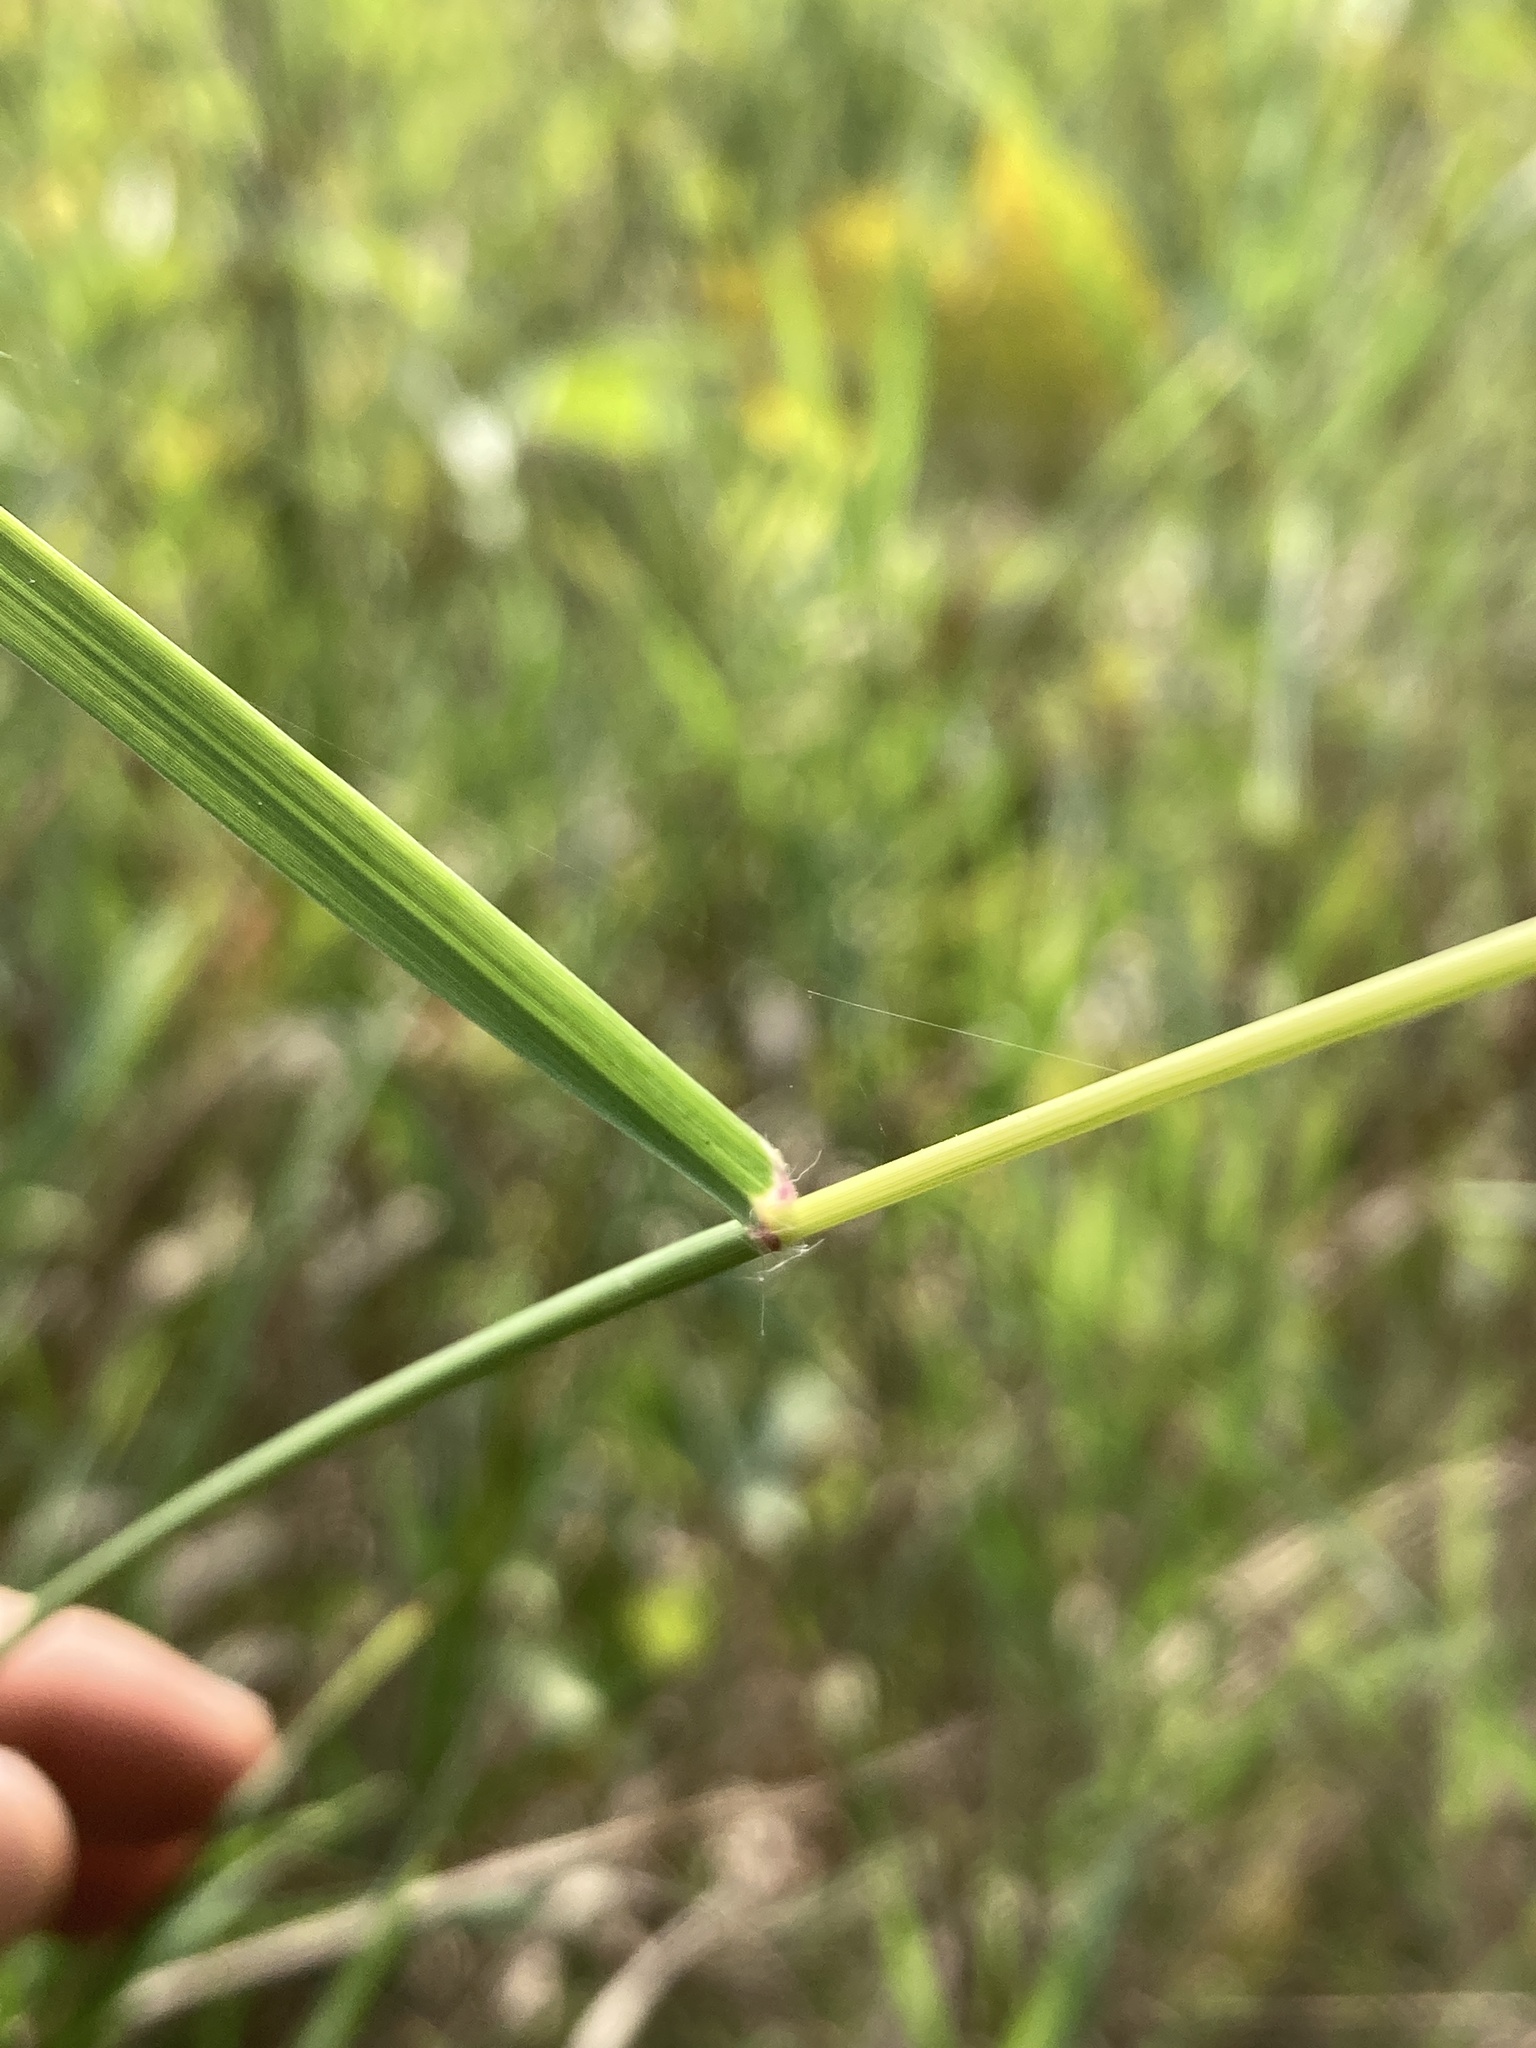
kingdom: Plantae
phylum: Tracheophyta
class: Liliopsida
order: Poales
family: Poaceae
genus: Bouteloua
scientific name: Bouteloua curtipendula
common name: Side-oats grama
